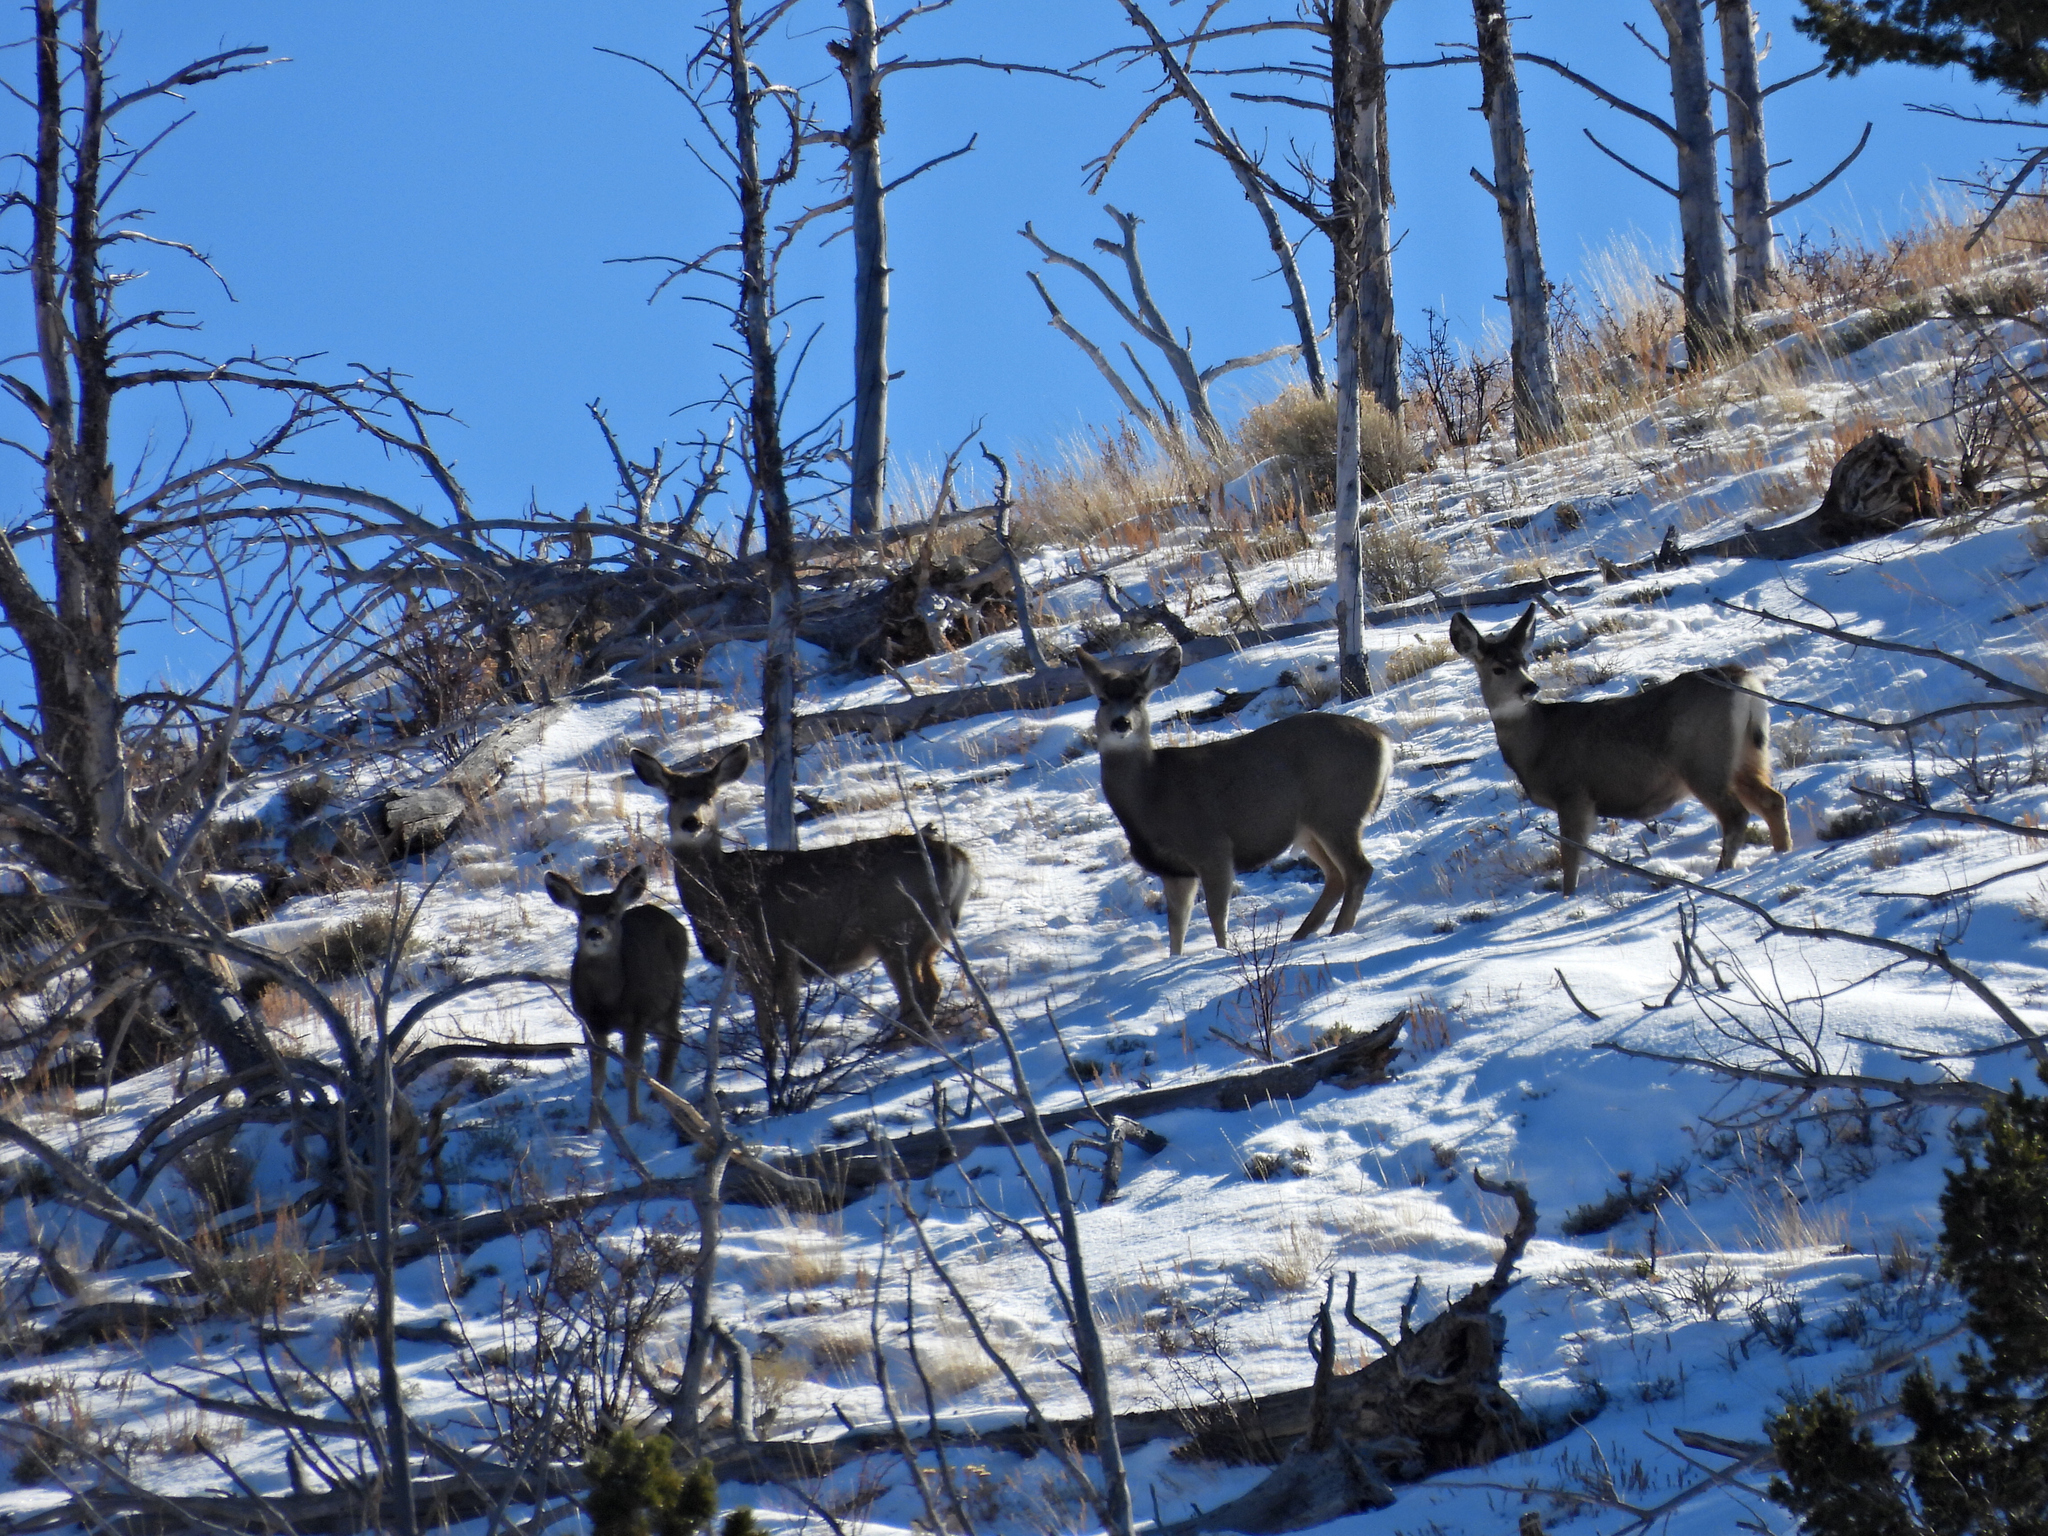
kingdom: Animalia
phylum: Chordata
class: Mammalia
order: Artiodactyla
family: Cervidae
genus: Odocoileus
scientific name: Odocoileus hemionus
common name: Mule deer
